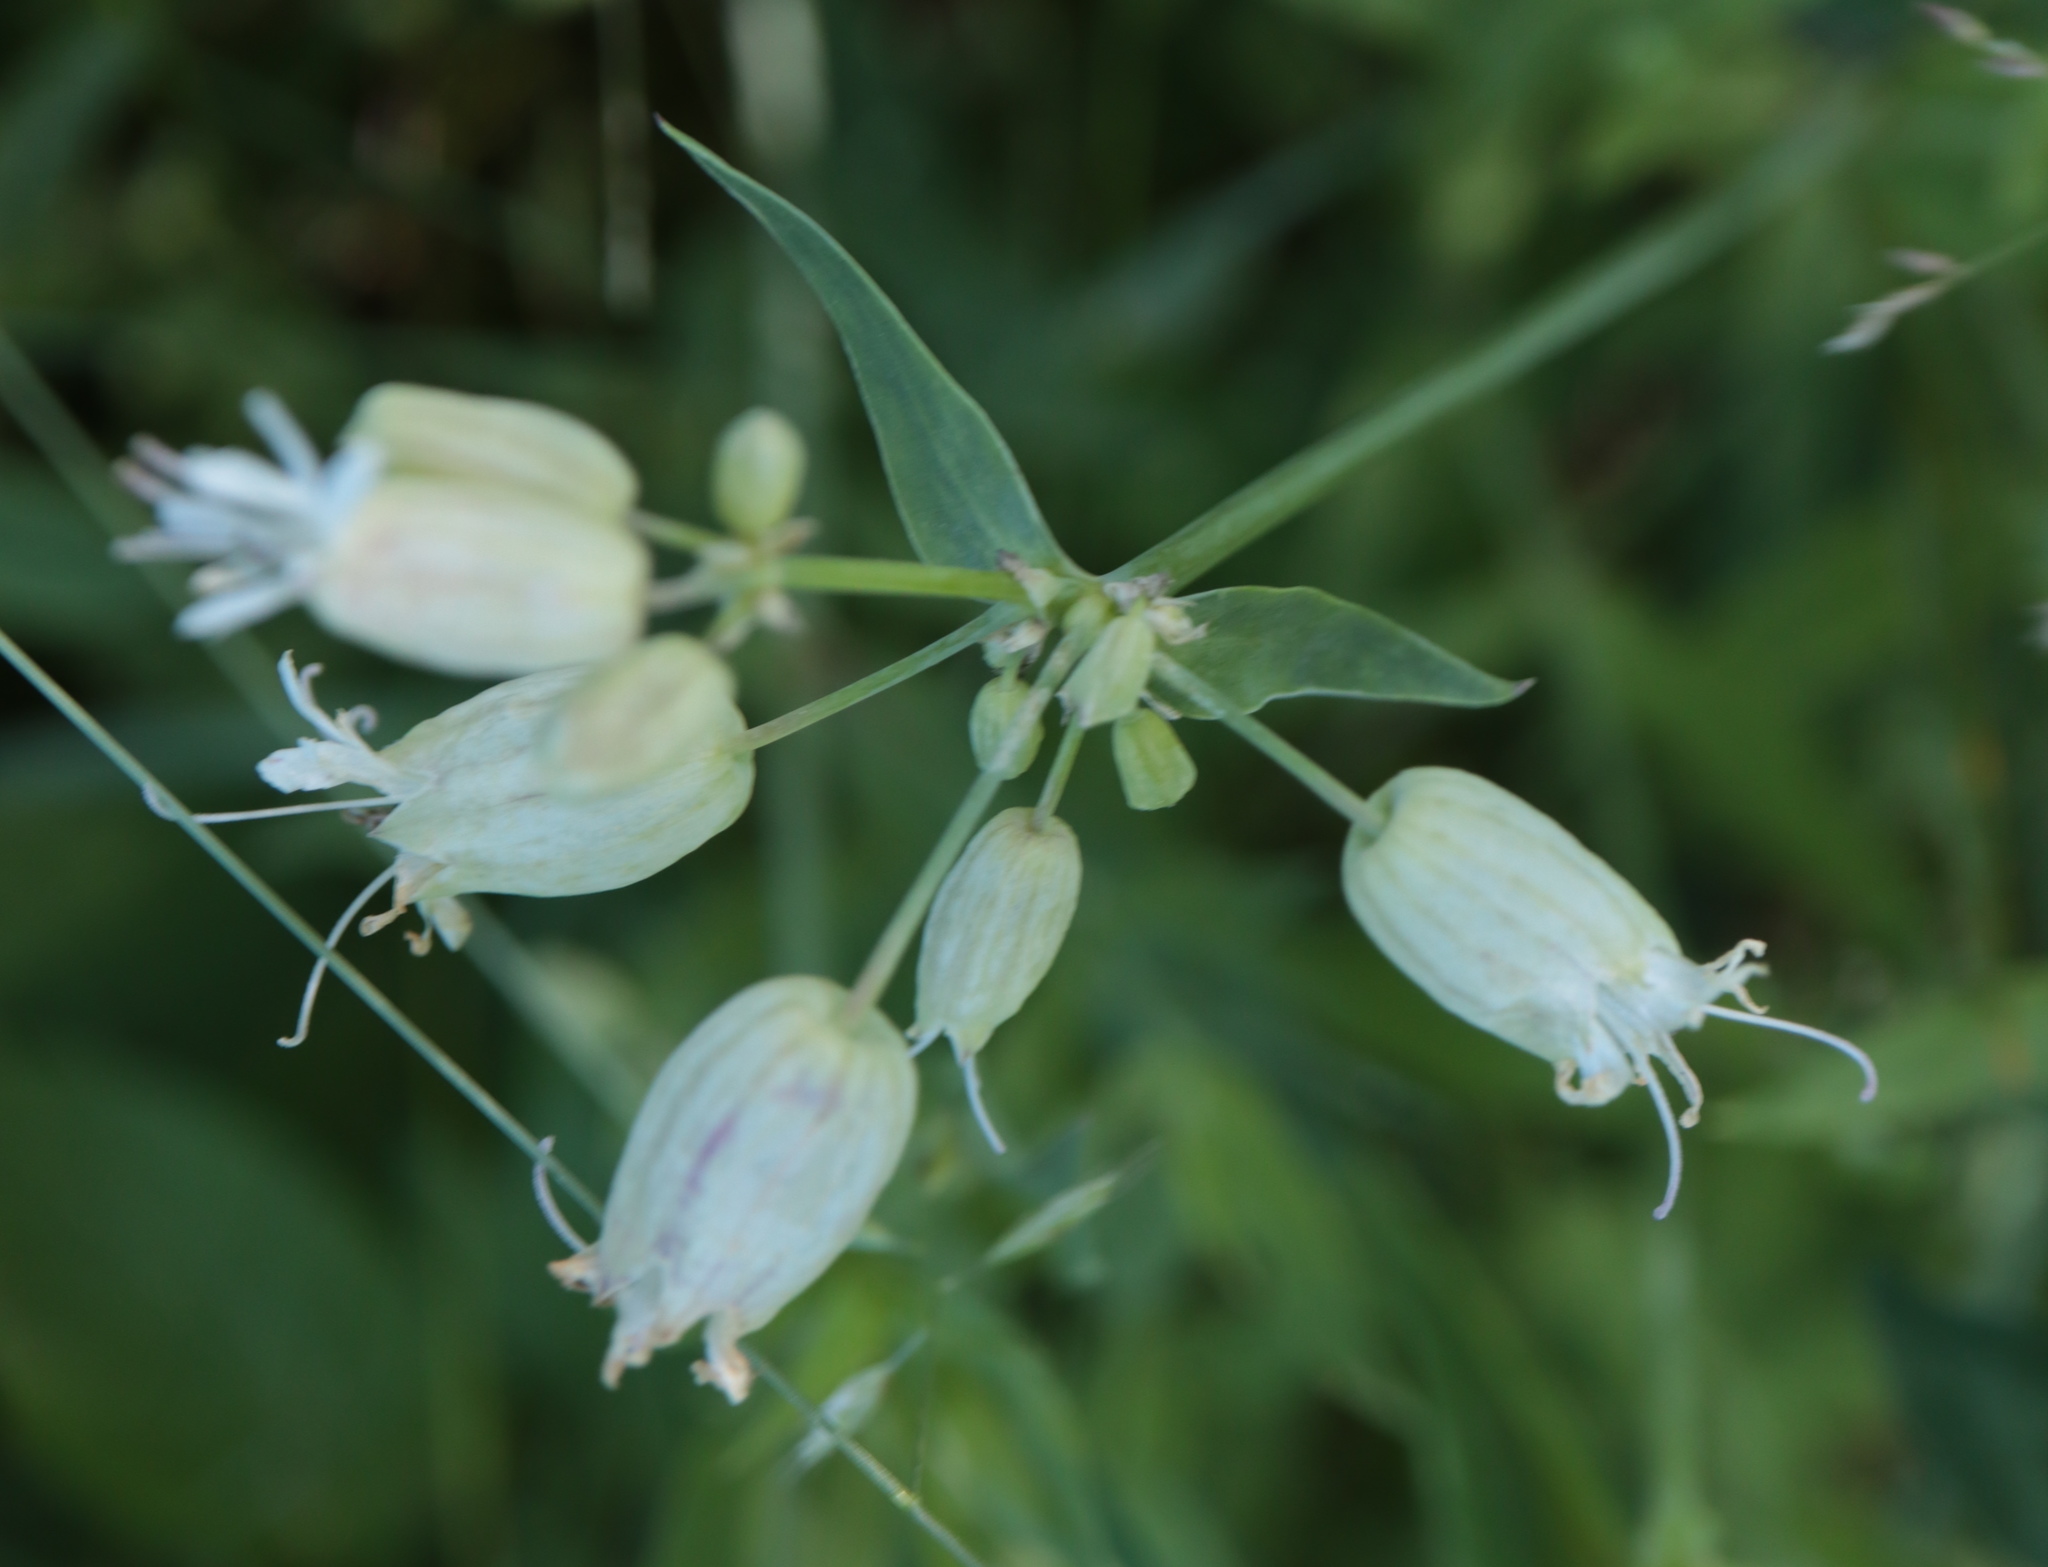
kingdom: Plantae
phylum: Tracheophyta
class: Magnoliopsida
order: Caryophyllales
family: Caryophyllaceae
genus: Silene
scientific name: Silene vulgaris
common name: Bladder campion
